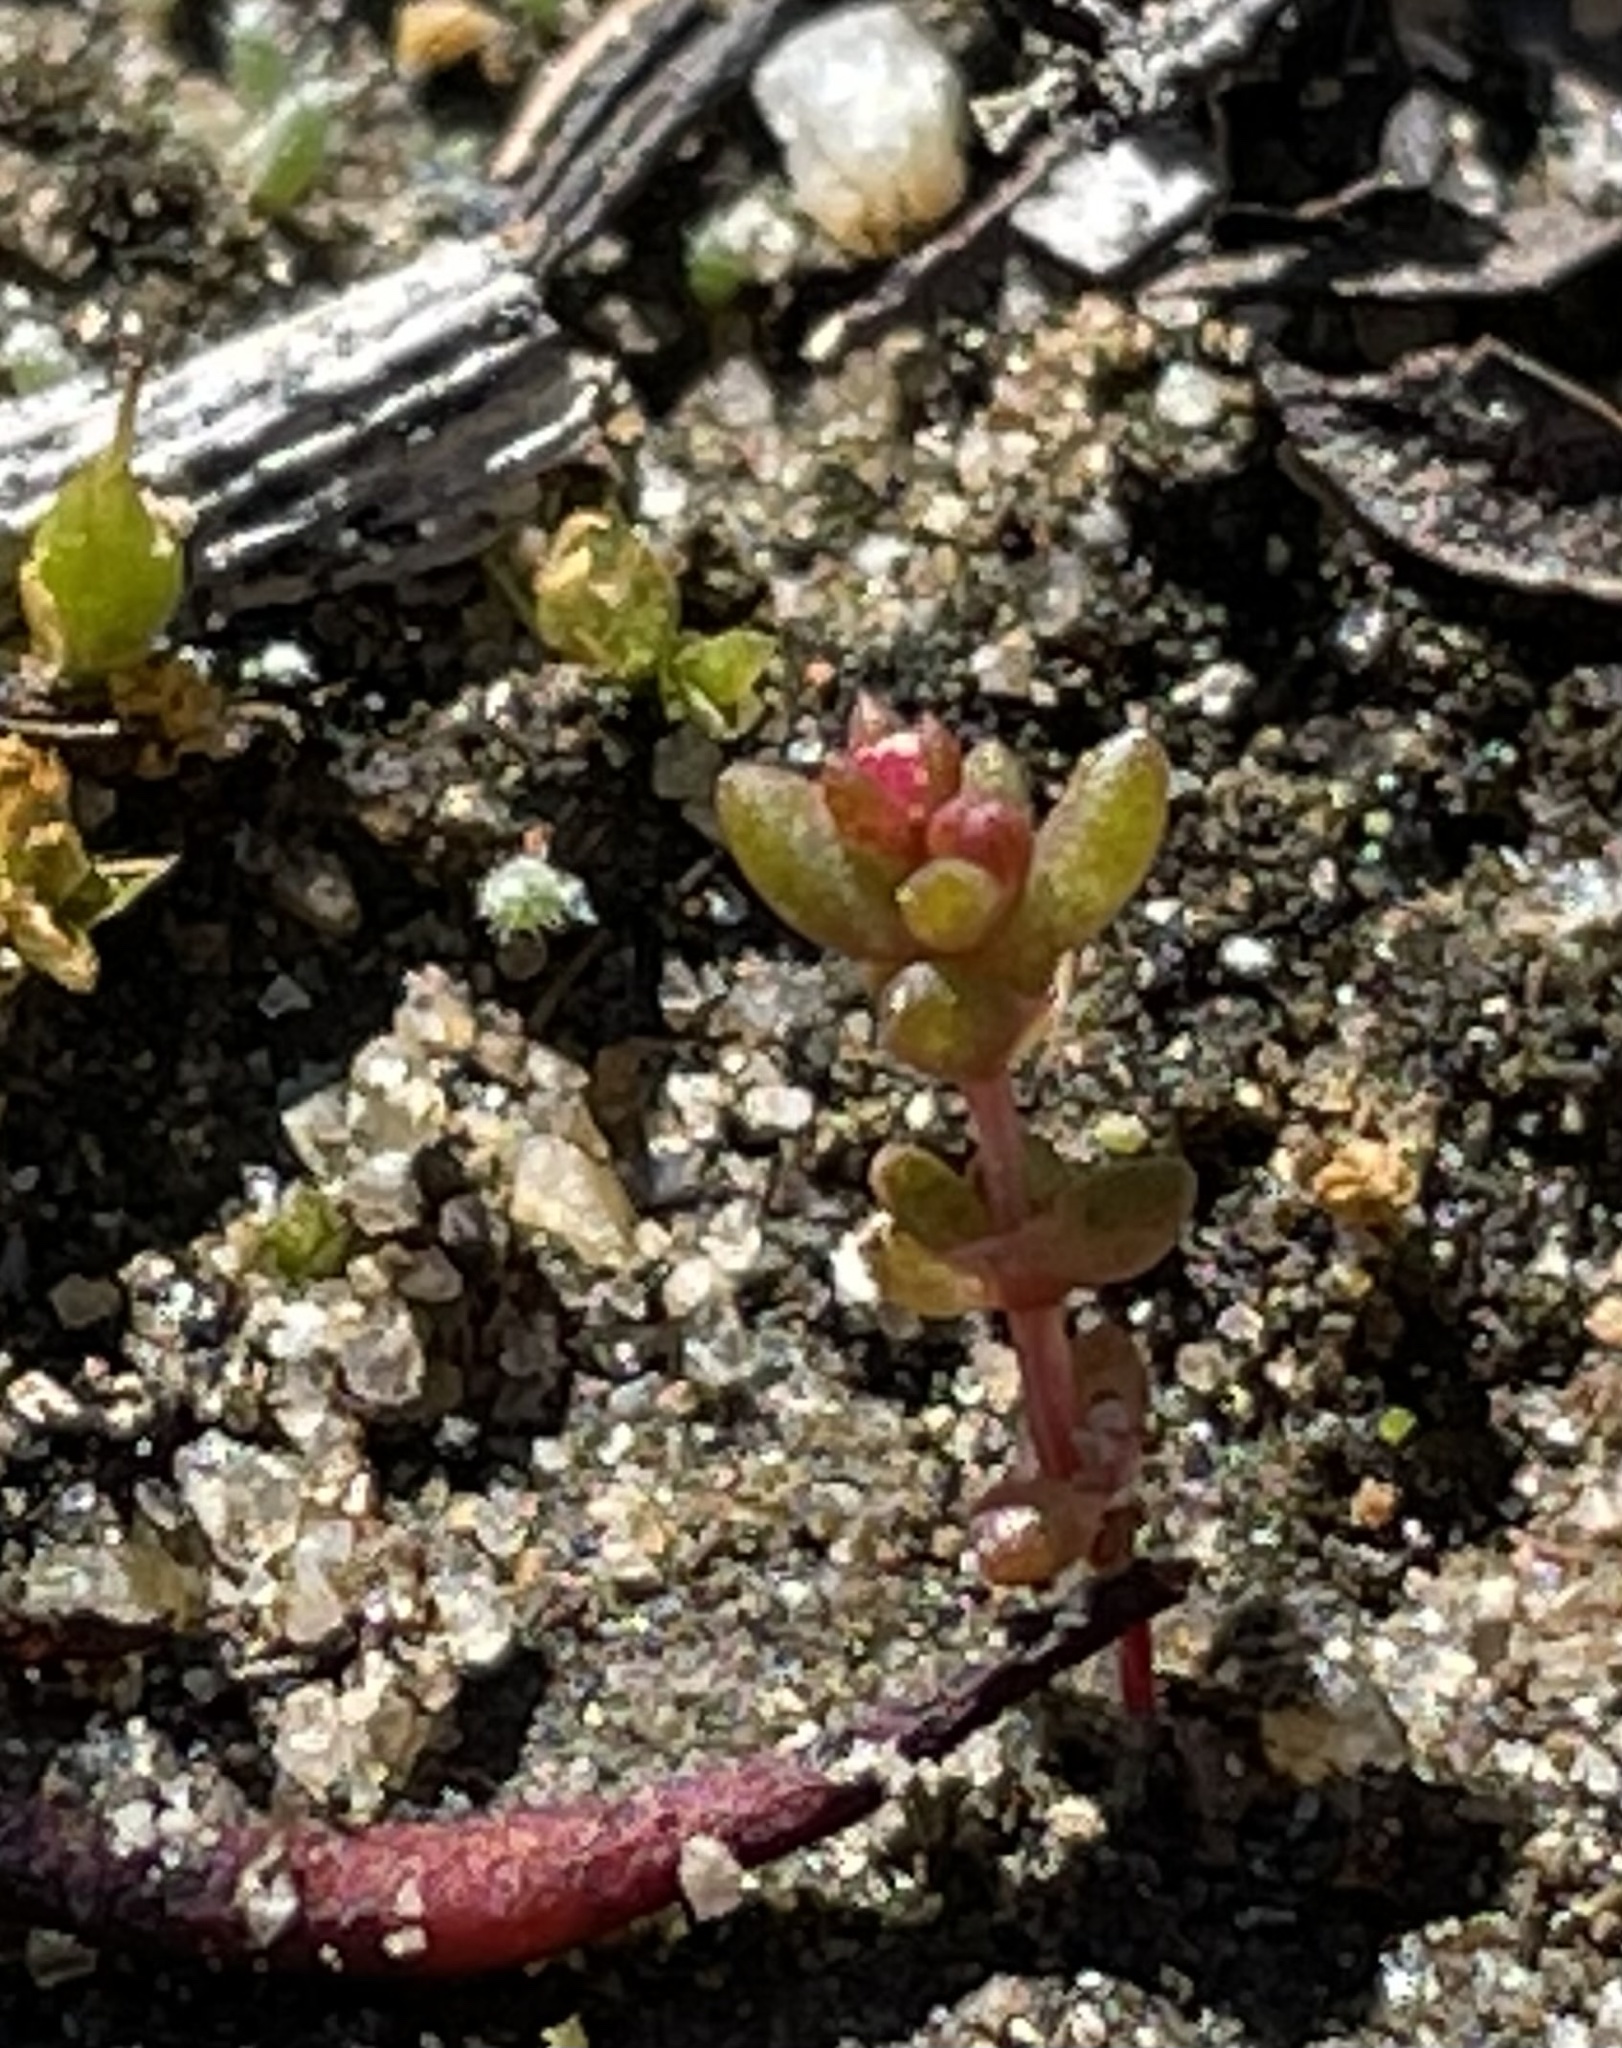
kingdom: Plantae
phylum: Tracheophyta
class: Magnoliopsida
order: Saxifragales
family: Crassulaceae
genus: Crassula
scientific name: Crassula connata
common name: Erect pygmyweed
